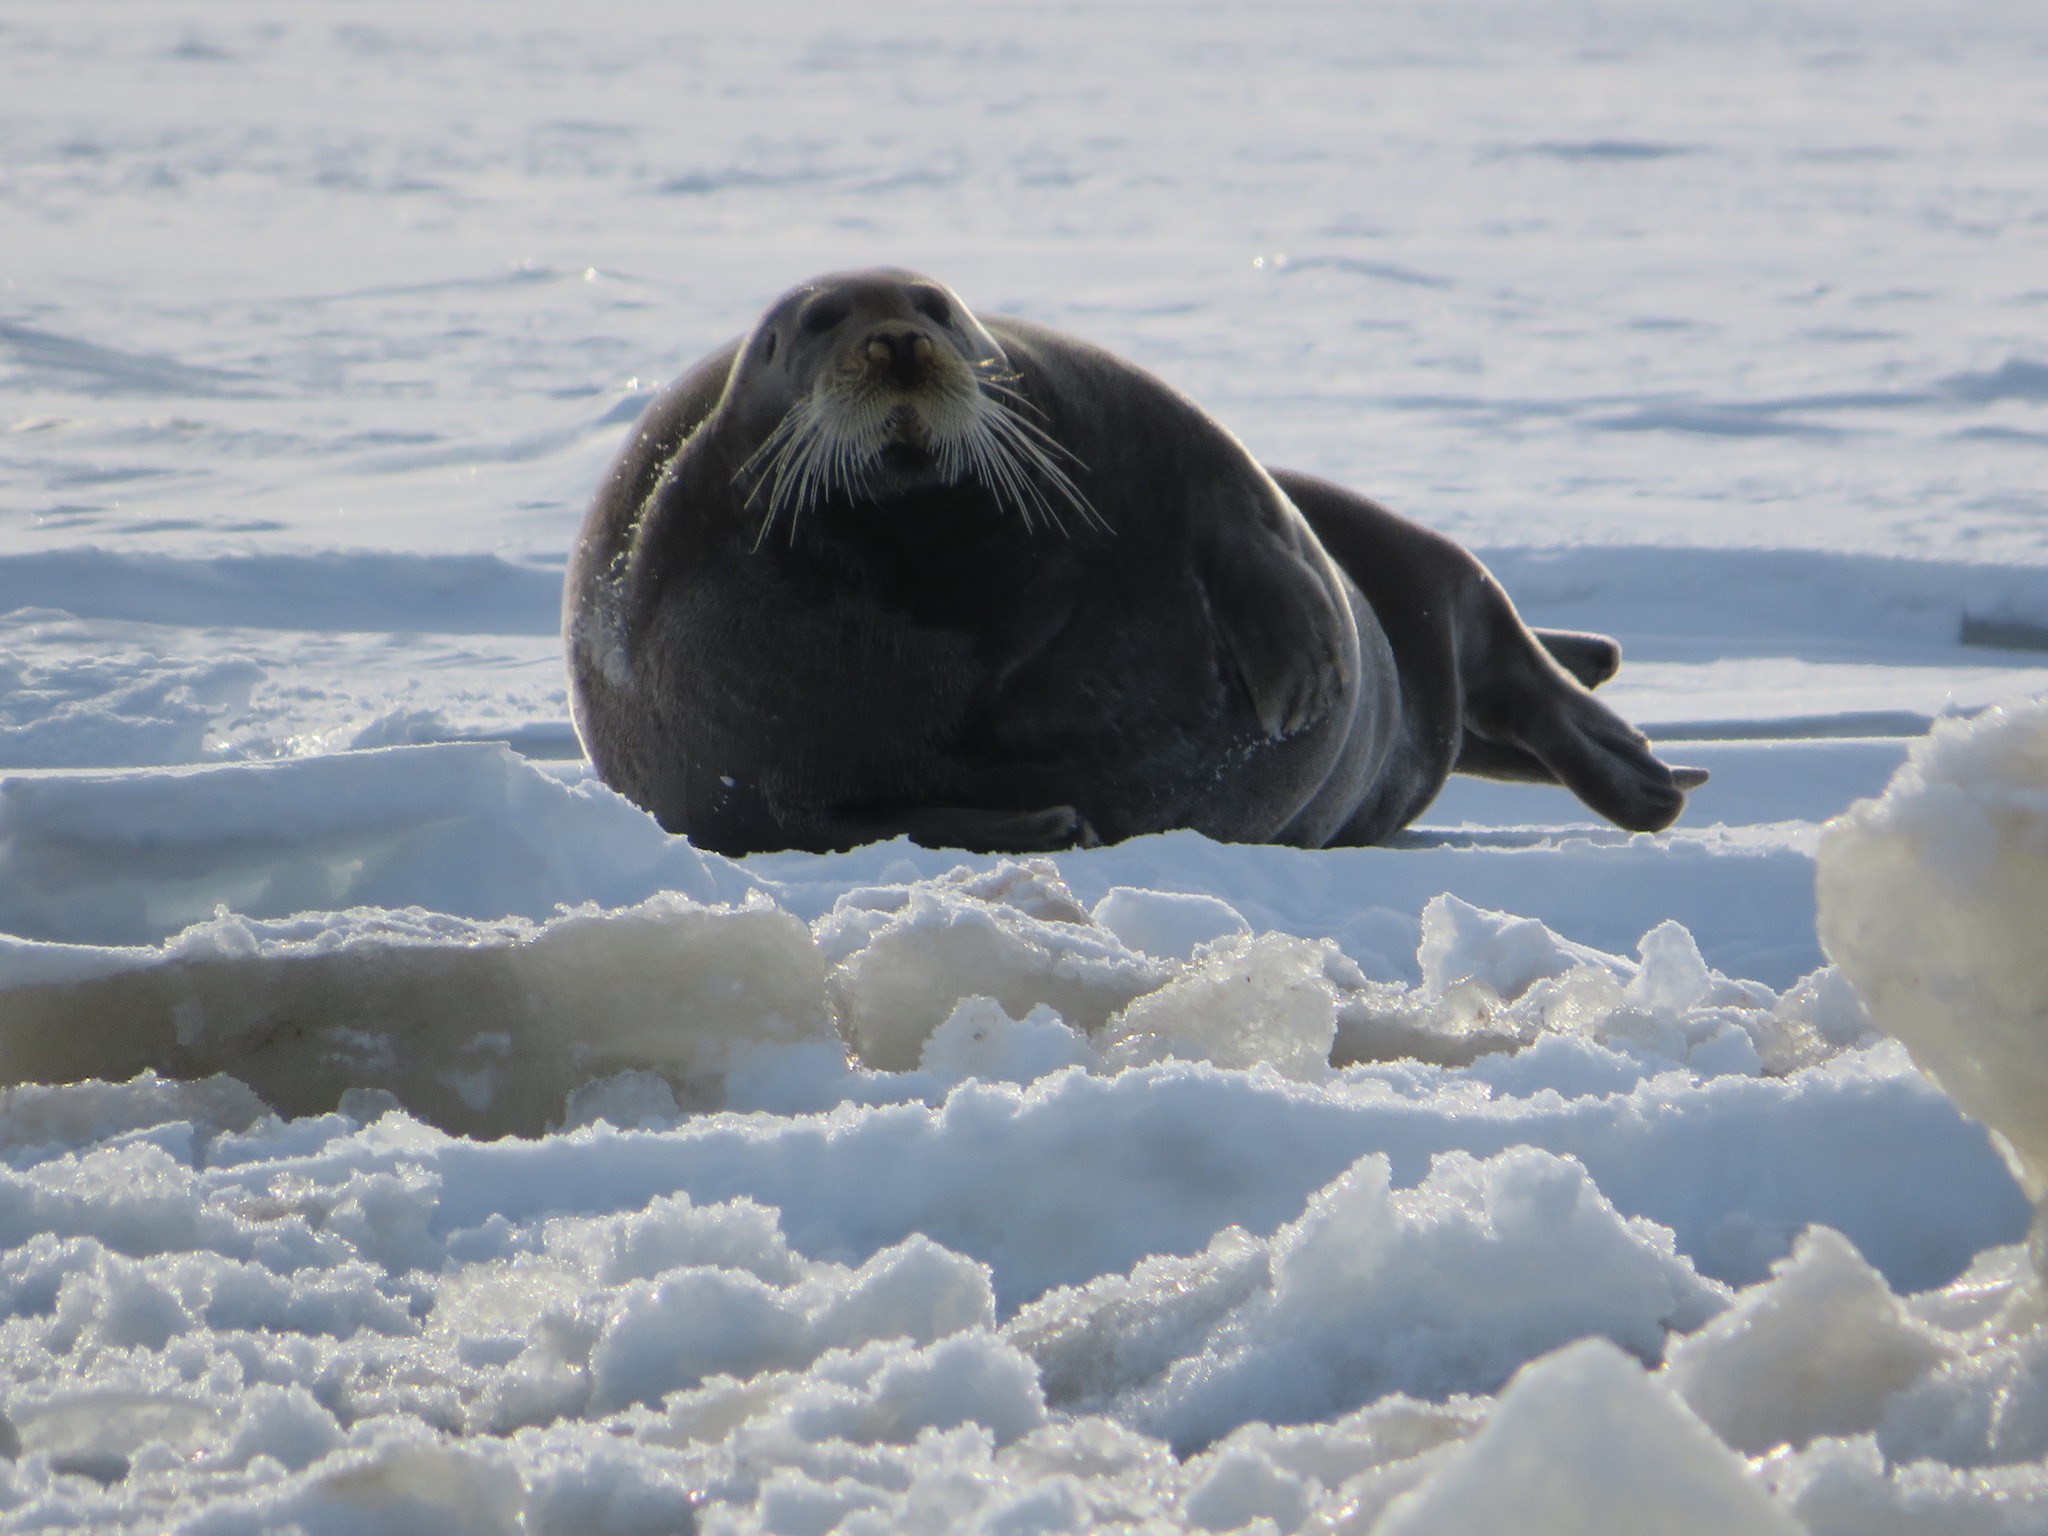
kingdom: Animalia
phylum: Chordata
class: Mammalia
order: Carnivora
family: Phocidae
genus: Erignathus
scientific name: Erignathus barbatus
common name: Bearded seal
